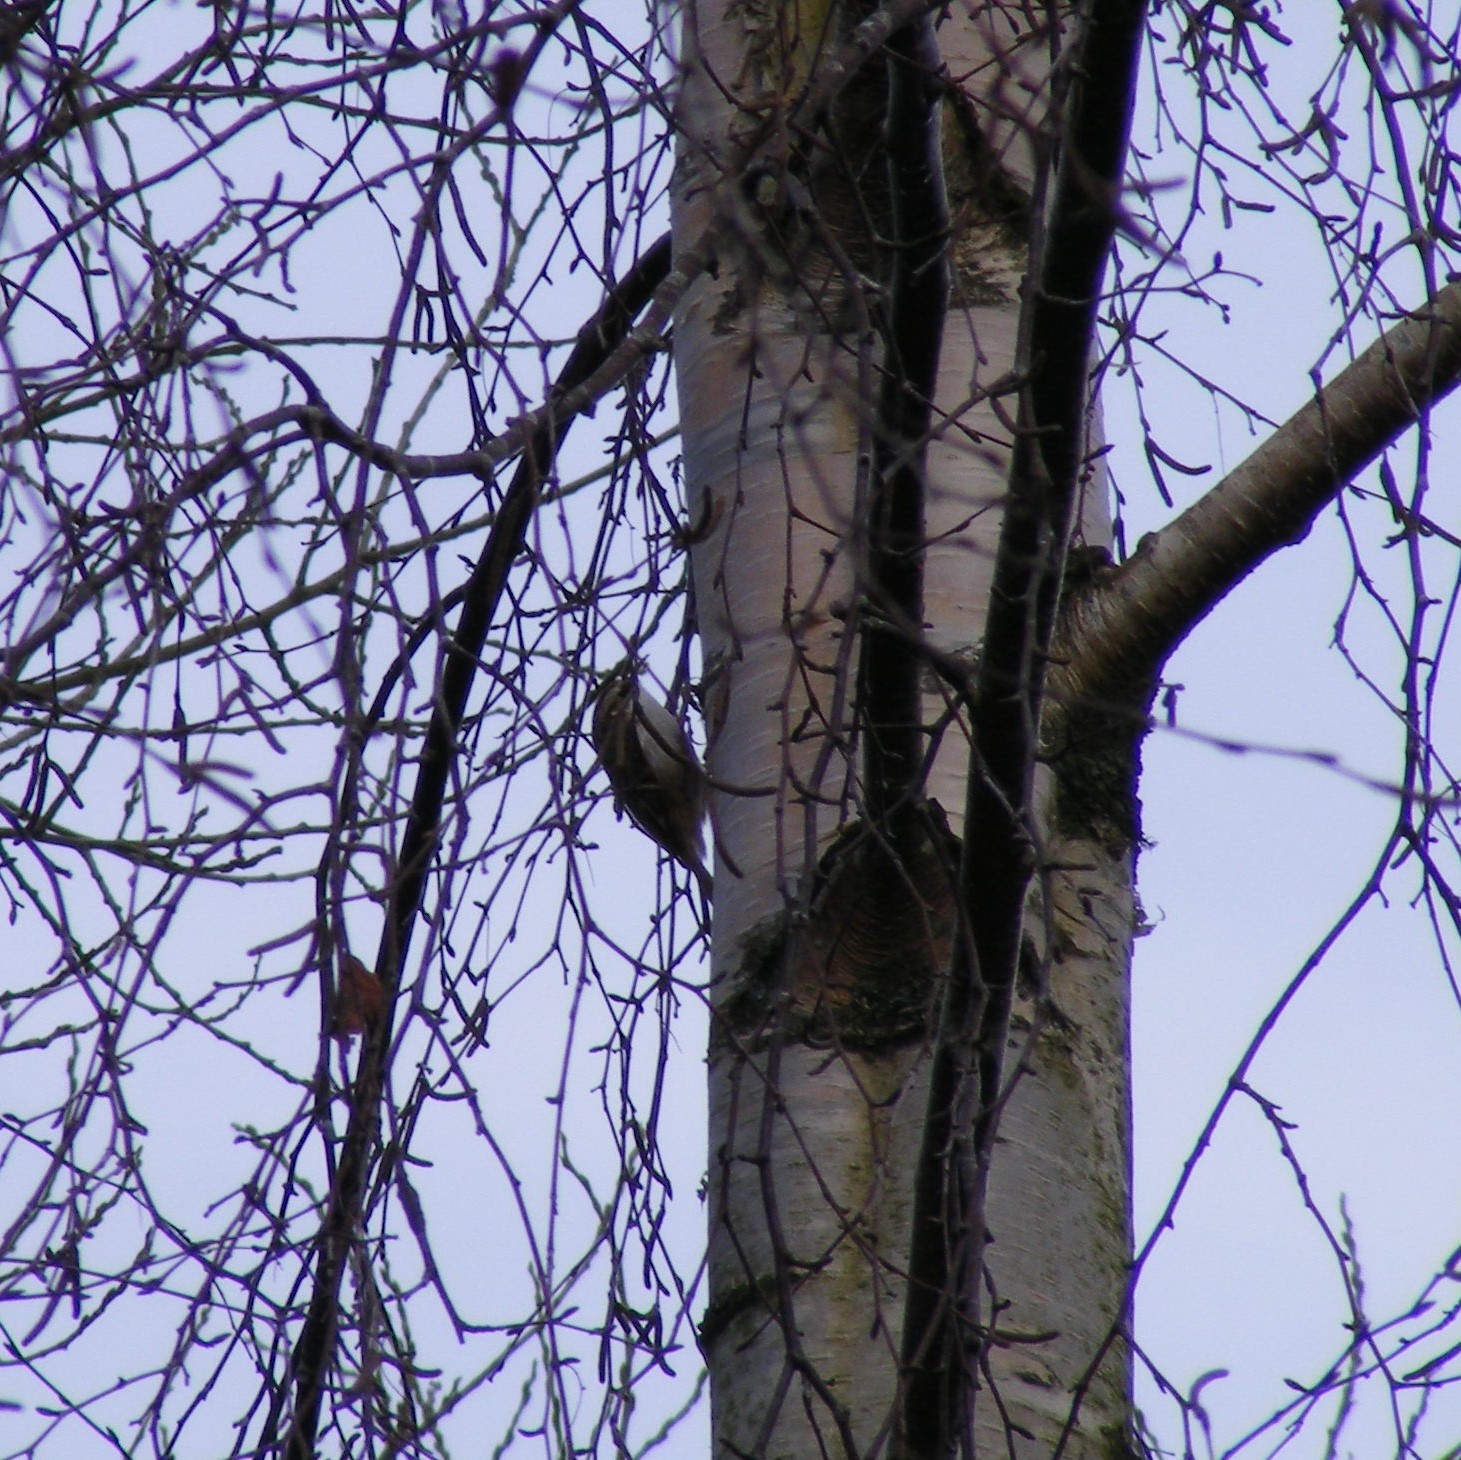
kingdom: Animalia
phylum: Chordata
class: Aves
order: Passeriformes
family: Certhiidae
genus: Certhia
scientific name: Certhia familiaris
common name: Eurasian treecreeper
